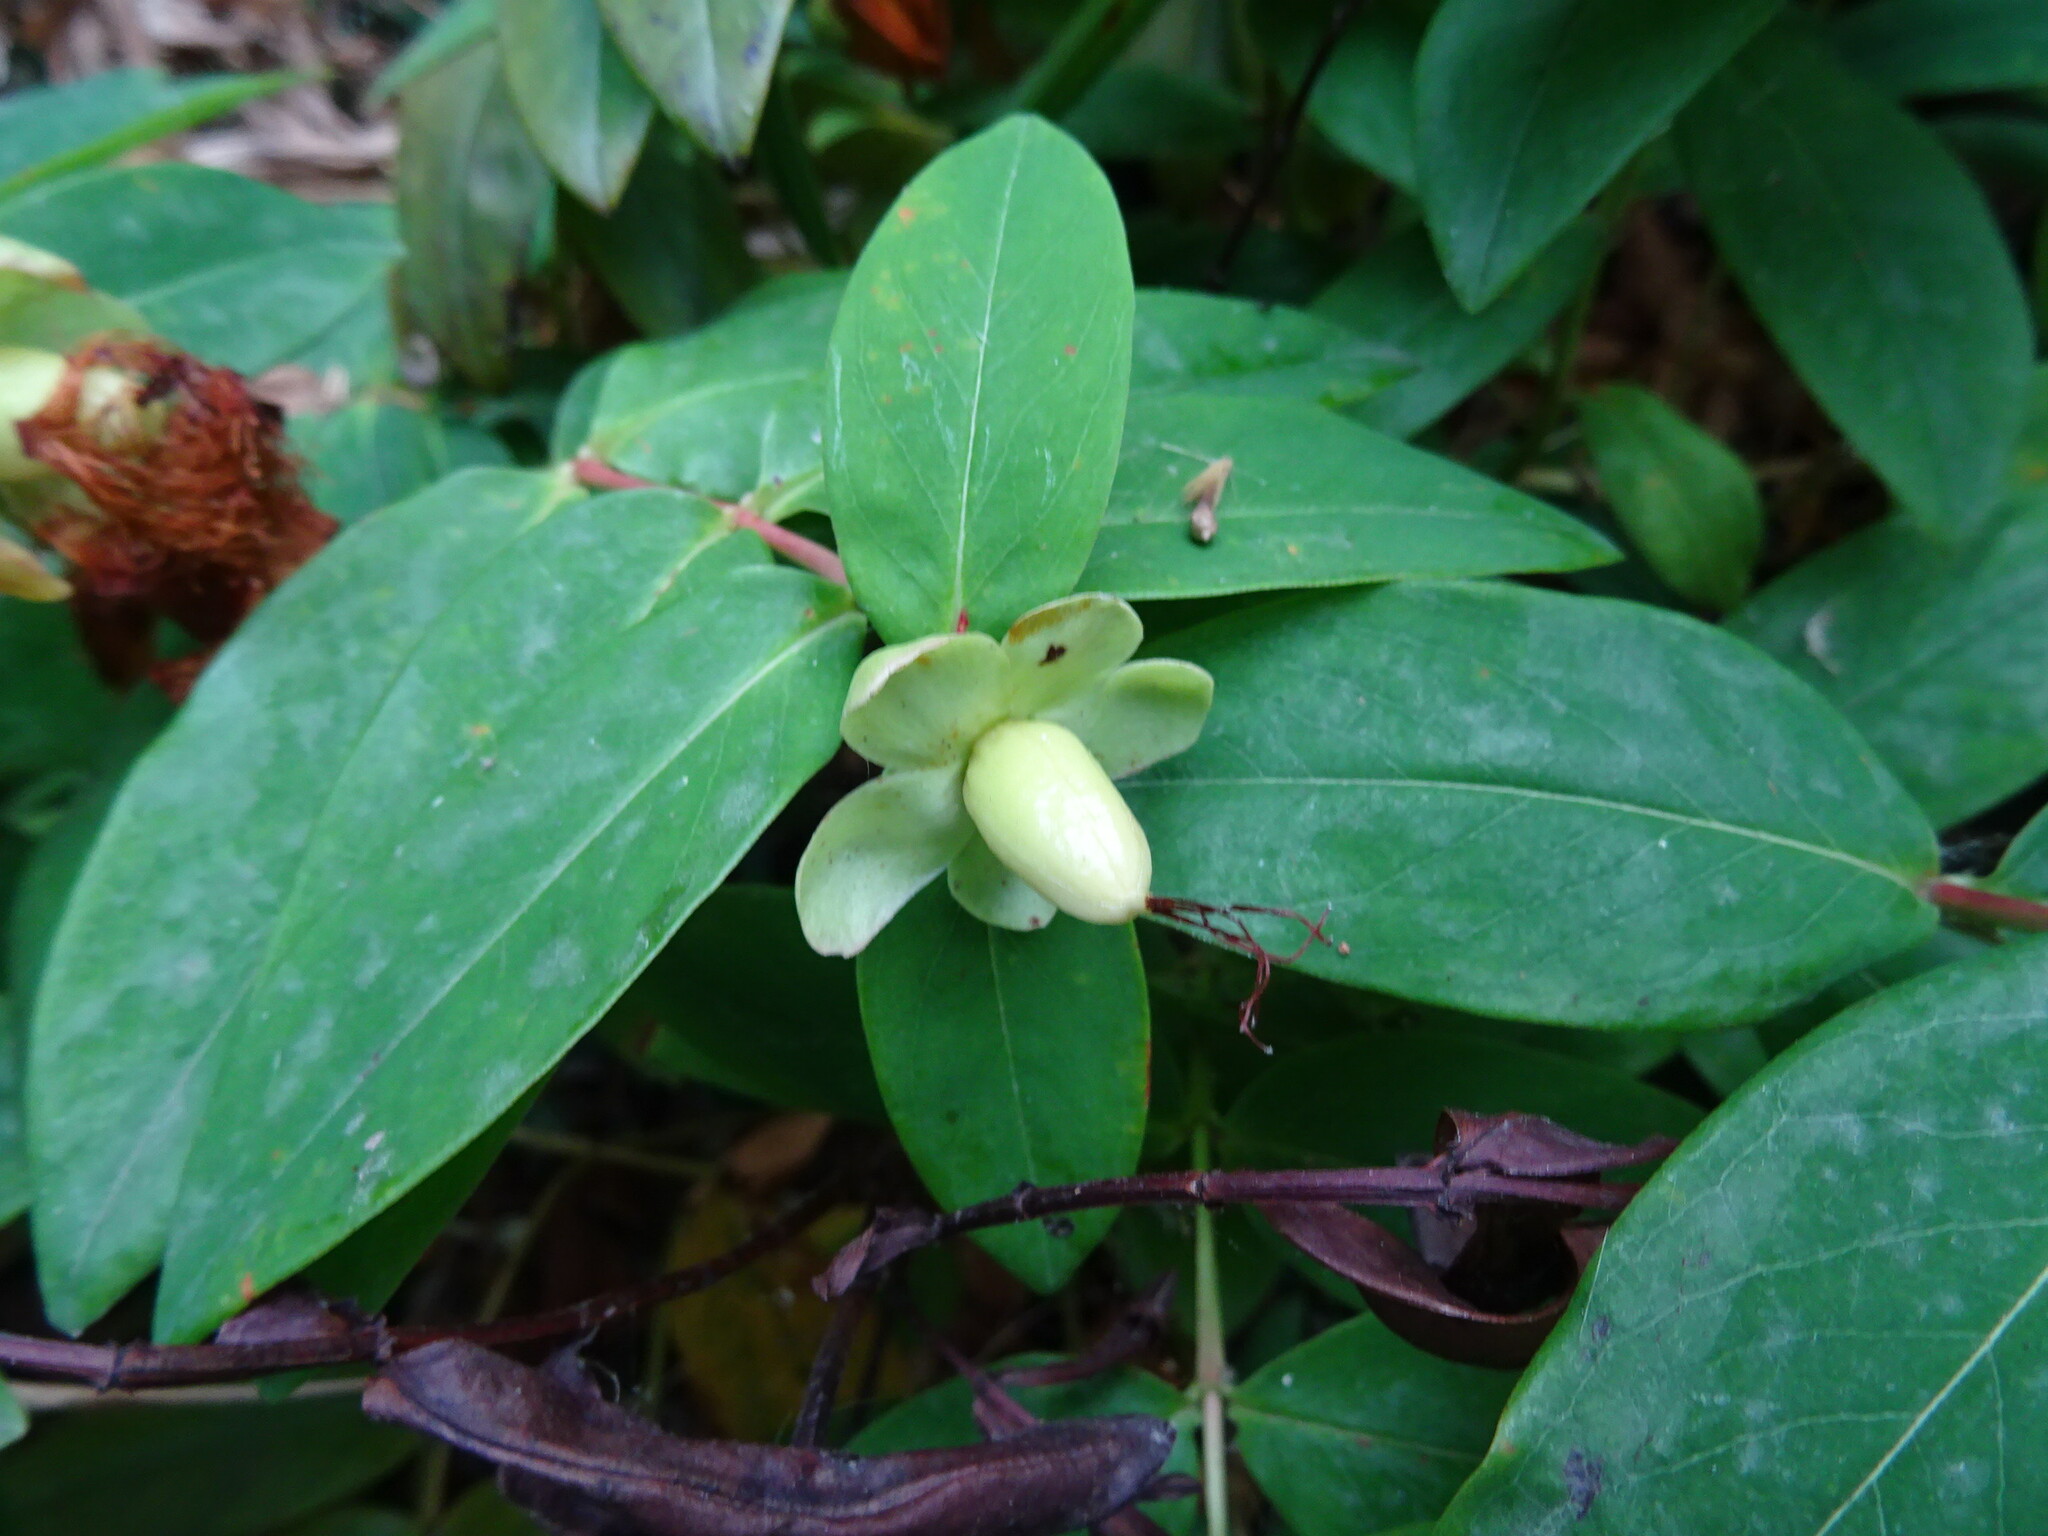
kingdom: Plantae
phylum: Tracheophyta
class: Magnoliopsida
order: Malpighiales
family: Hypericaceae
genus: Hypericum
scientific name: Hypericum calycinum
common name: Rose-of-sharon
